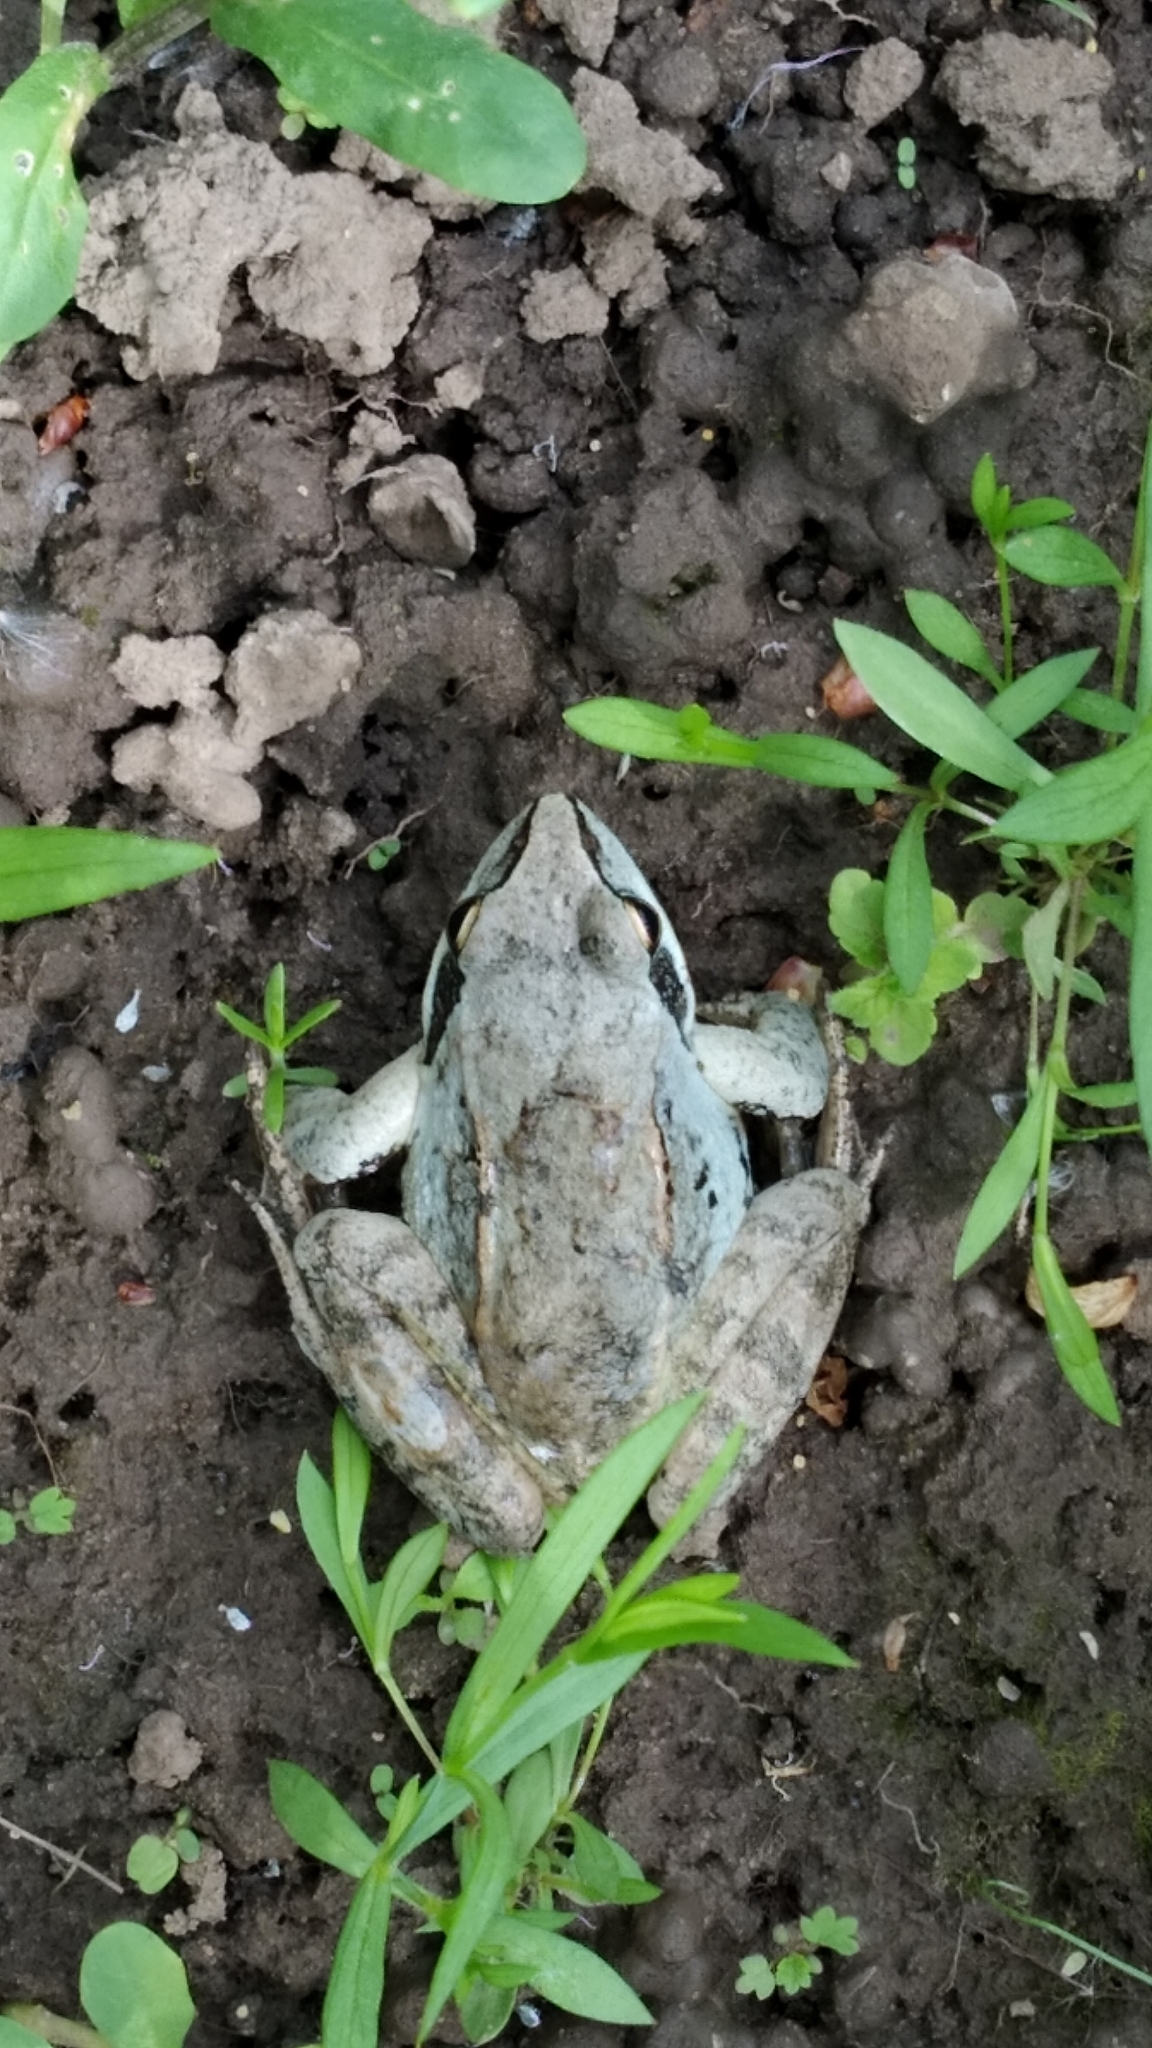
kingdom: Animalia
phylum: Chordata
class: Amphibia
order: Anura
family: Ranidae
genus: Rana
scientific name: Rana arvalis
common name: Moor frog
